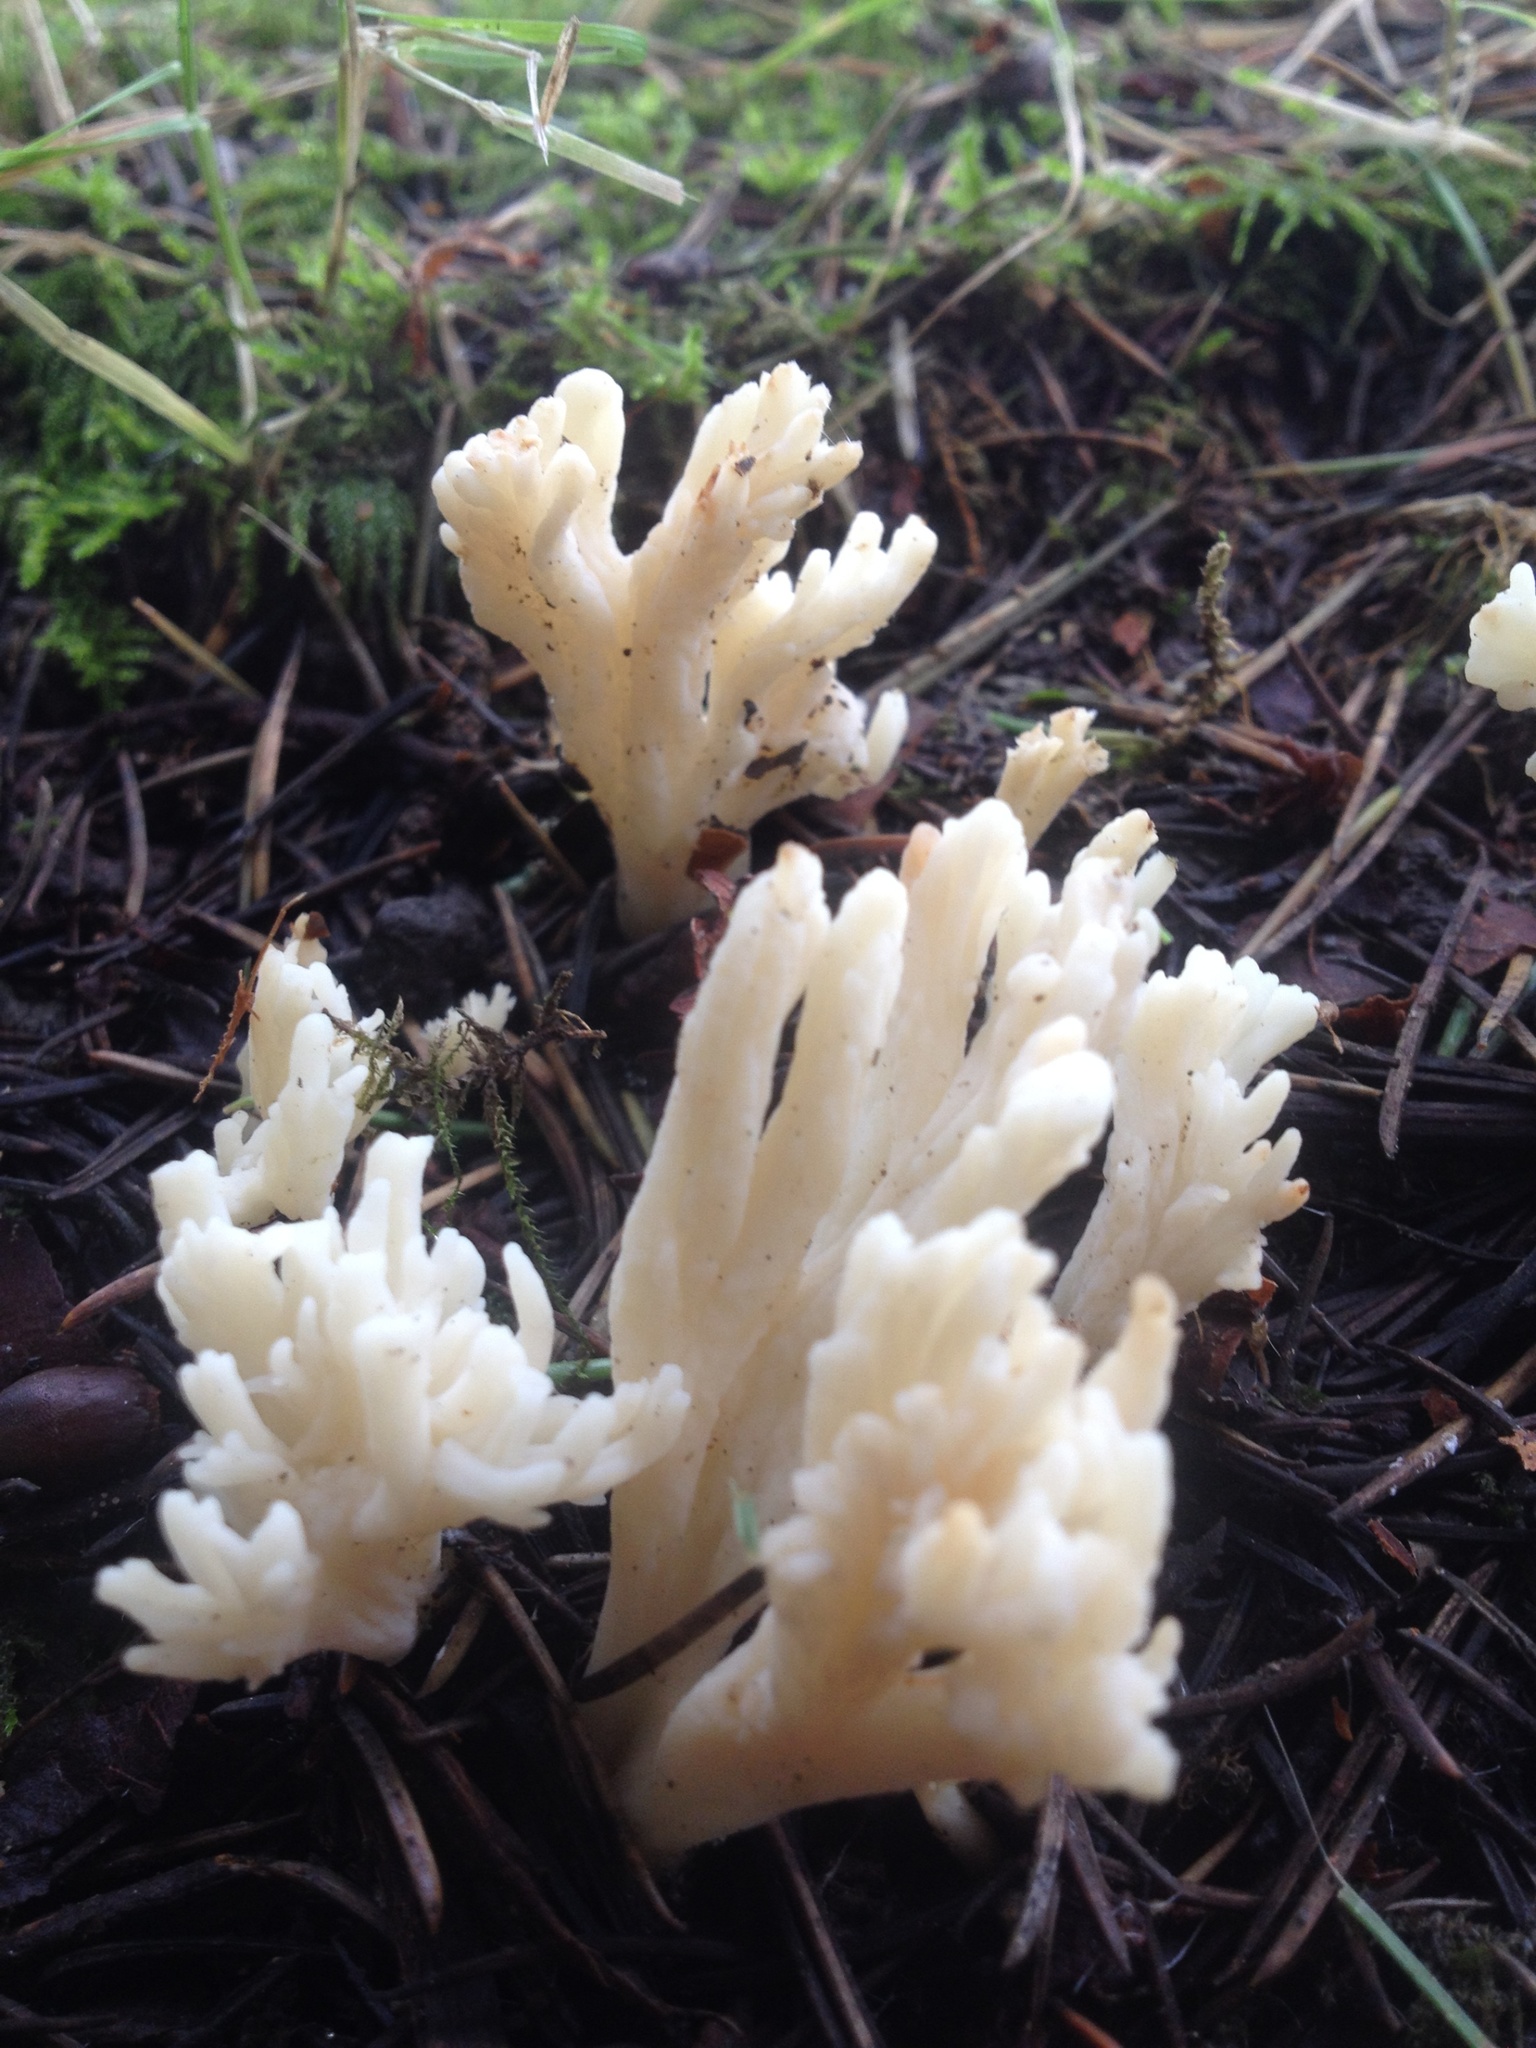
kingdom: Fungi
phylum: Basidiomycota
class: Agaricomycetes
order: Cantharellales
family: Hydnaceae
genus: Clavulina
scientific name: Clavulina rugosa
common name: Wrinkled club
